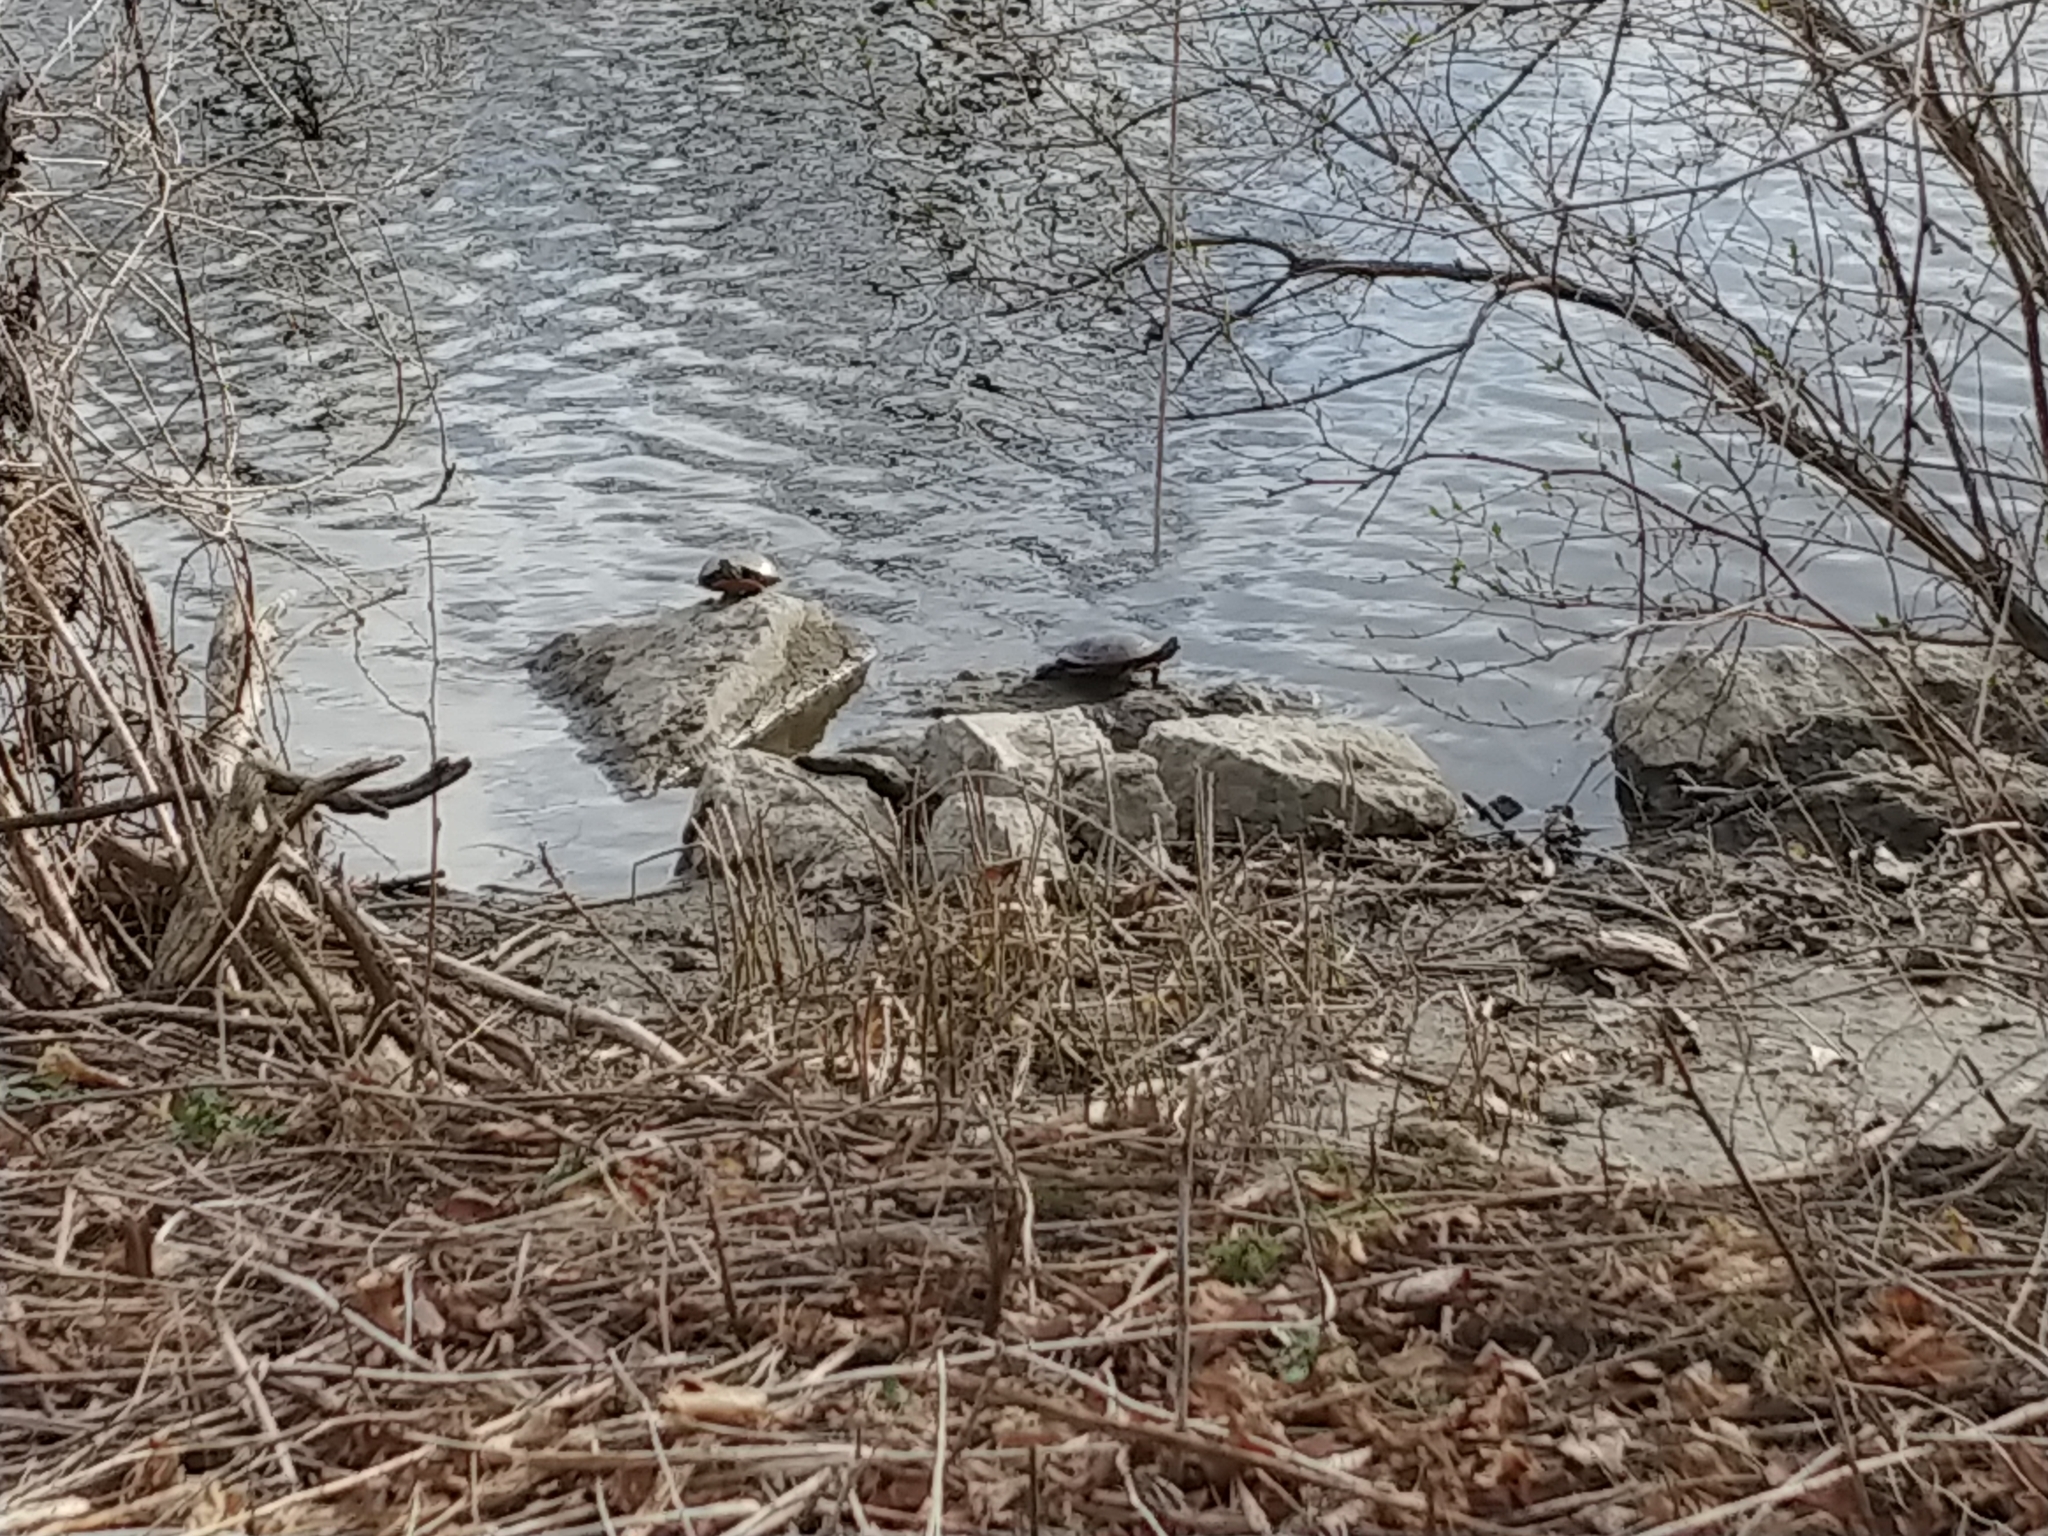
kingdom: Animalia
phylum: Chordata
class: Testudines
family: Emydidae
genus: Chrysemys
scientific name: Chrysemys picta
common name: Painted turtle
